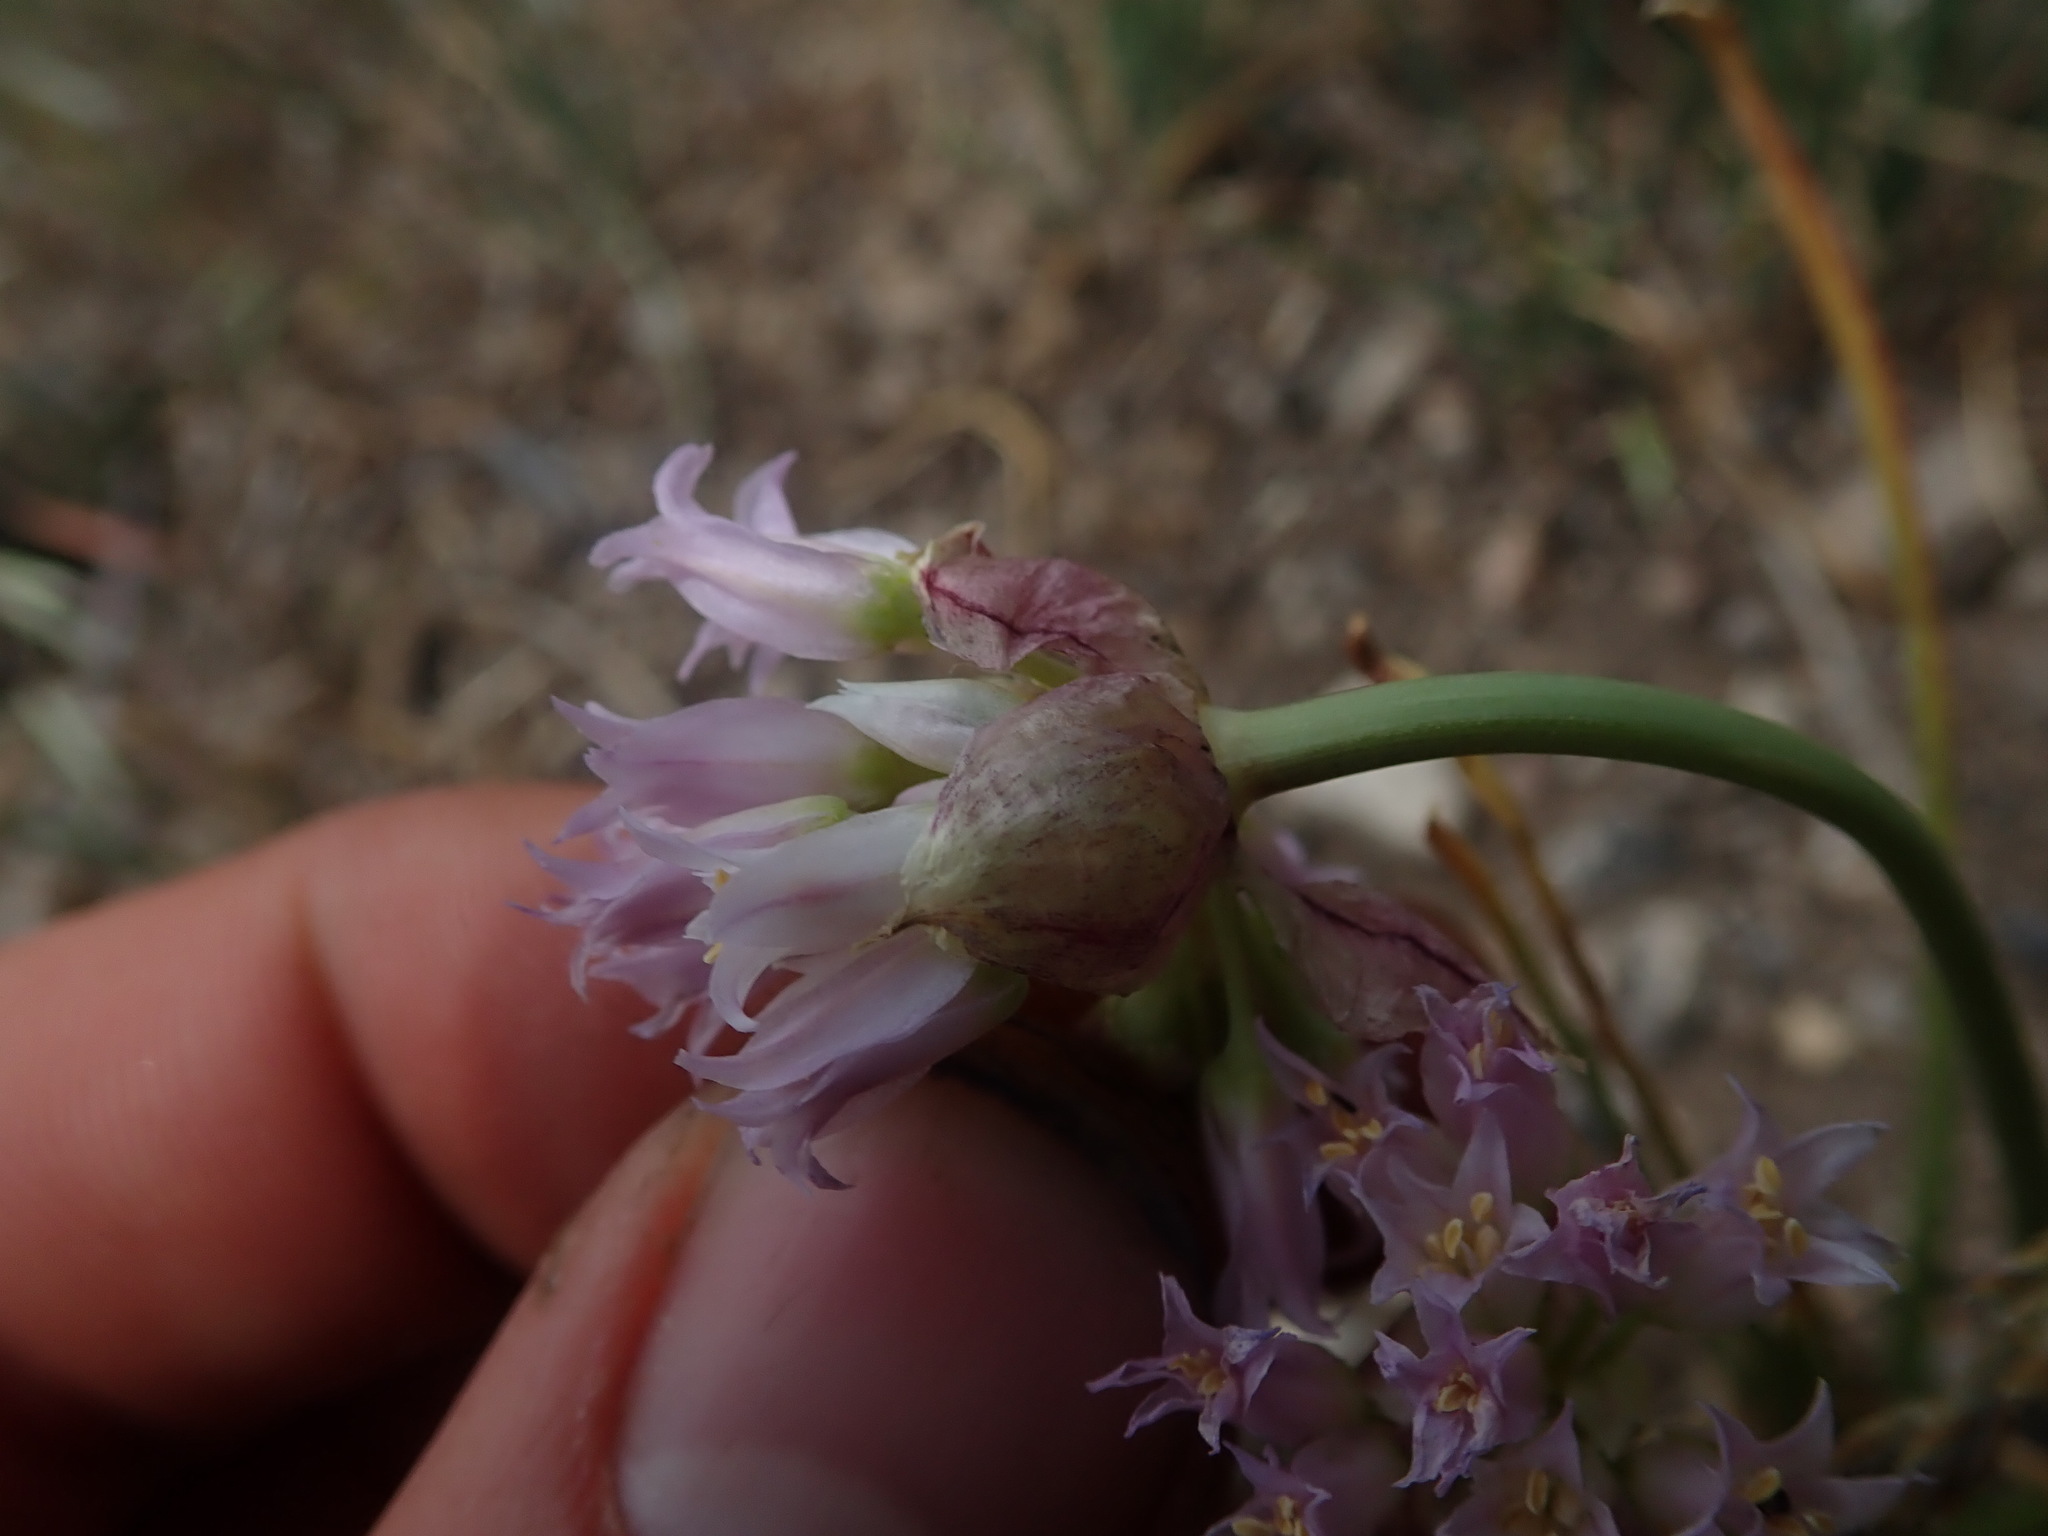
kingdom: Plantae
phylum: Tracheophyta
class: Liliopsida
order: Asparagales
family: Amaryllidaceae
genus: Allium
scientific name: Allium geyeri
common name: Geyer's onion
